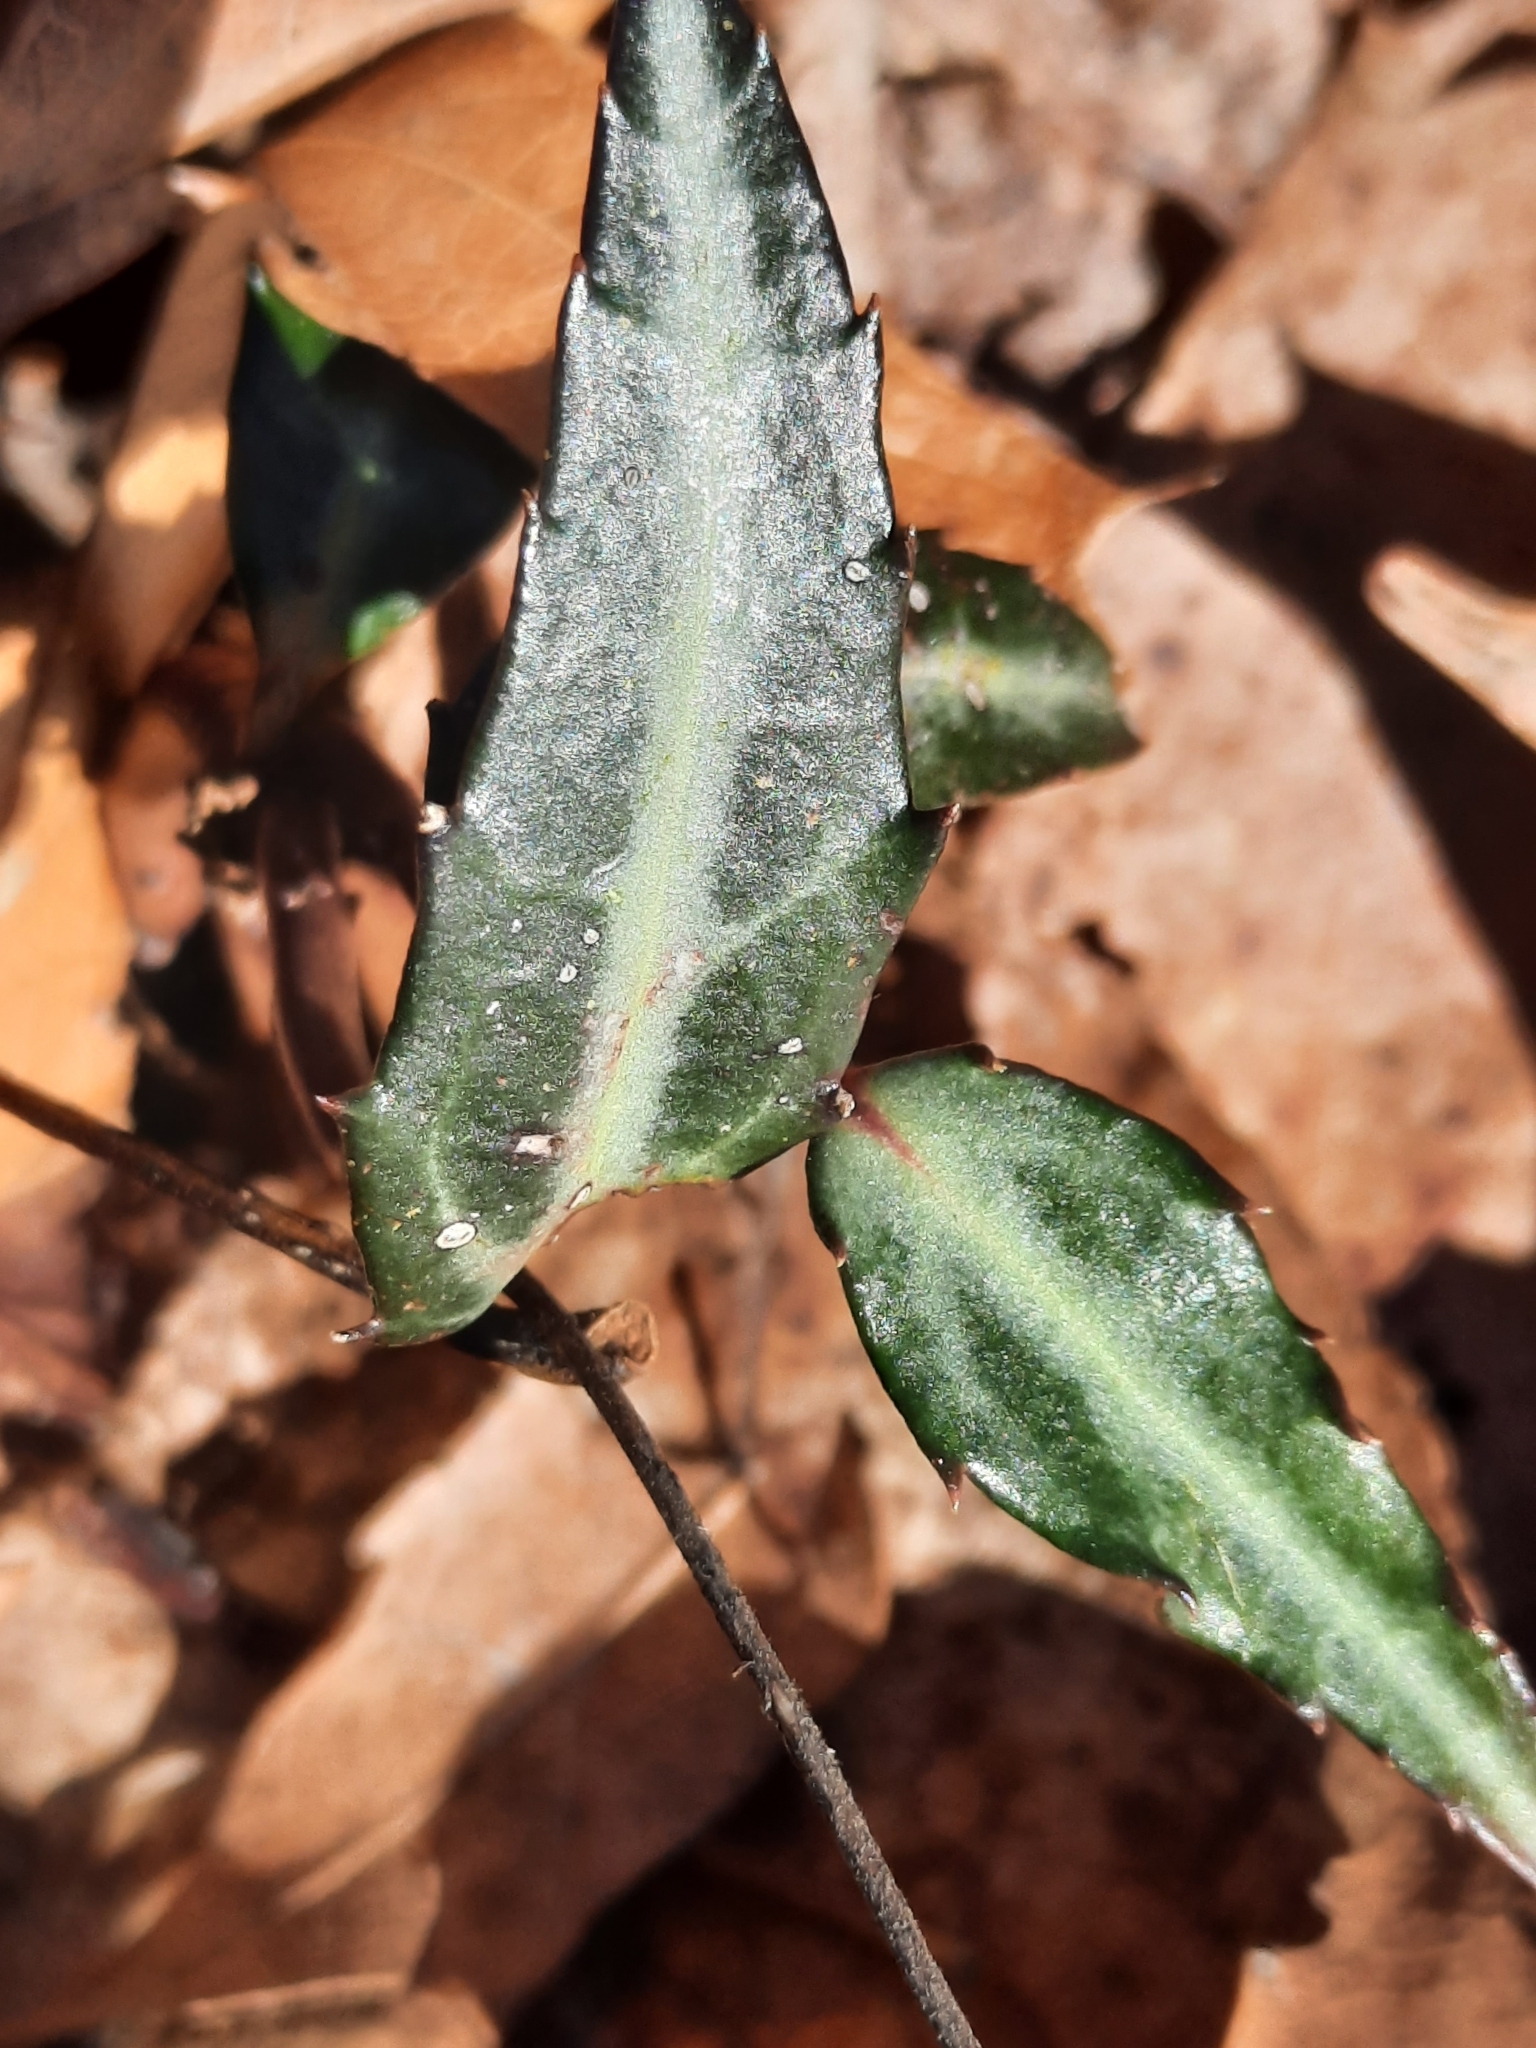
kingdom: Plantae
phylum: Tracheophyta
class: Magnoliopsida
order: Ericales
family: Ericaceae
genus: Chimaphila
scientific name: Chimaphila maculata
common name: Spotted pipsissewa
